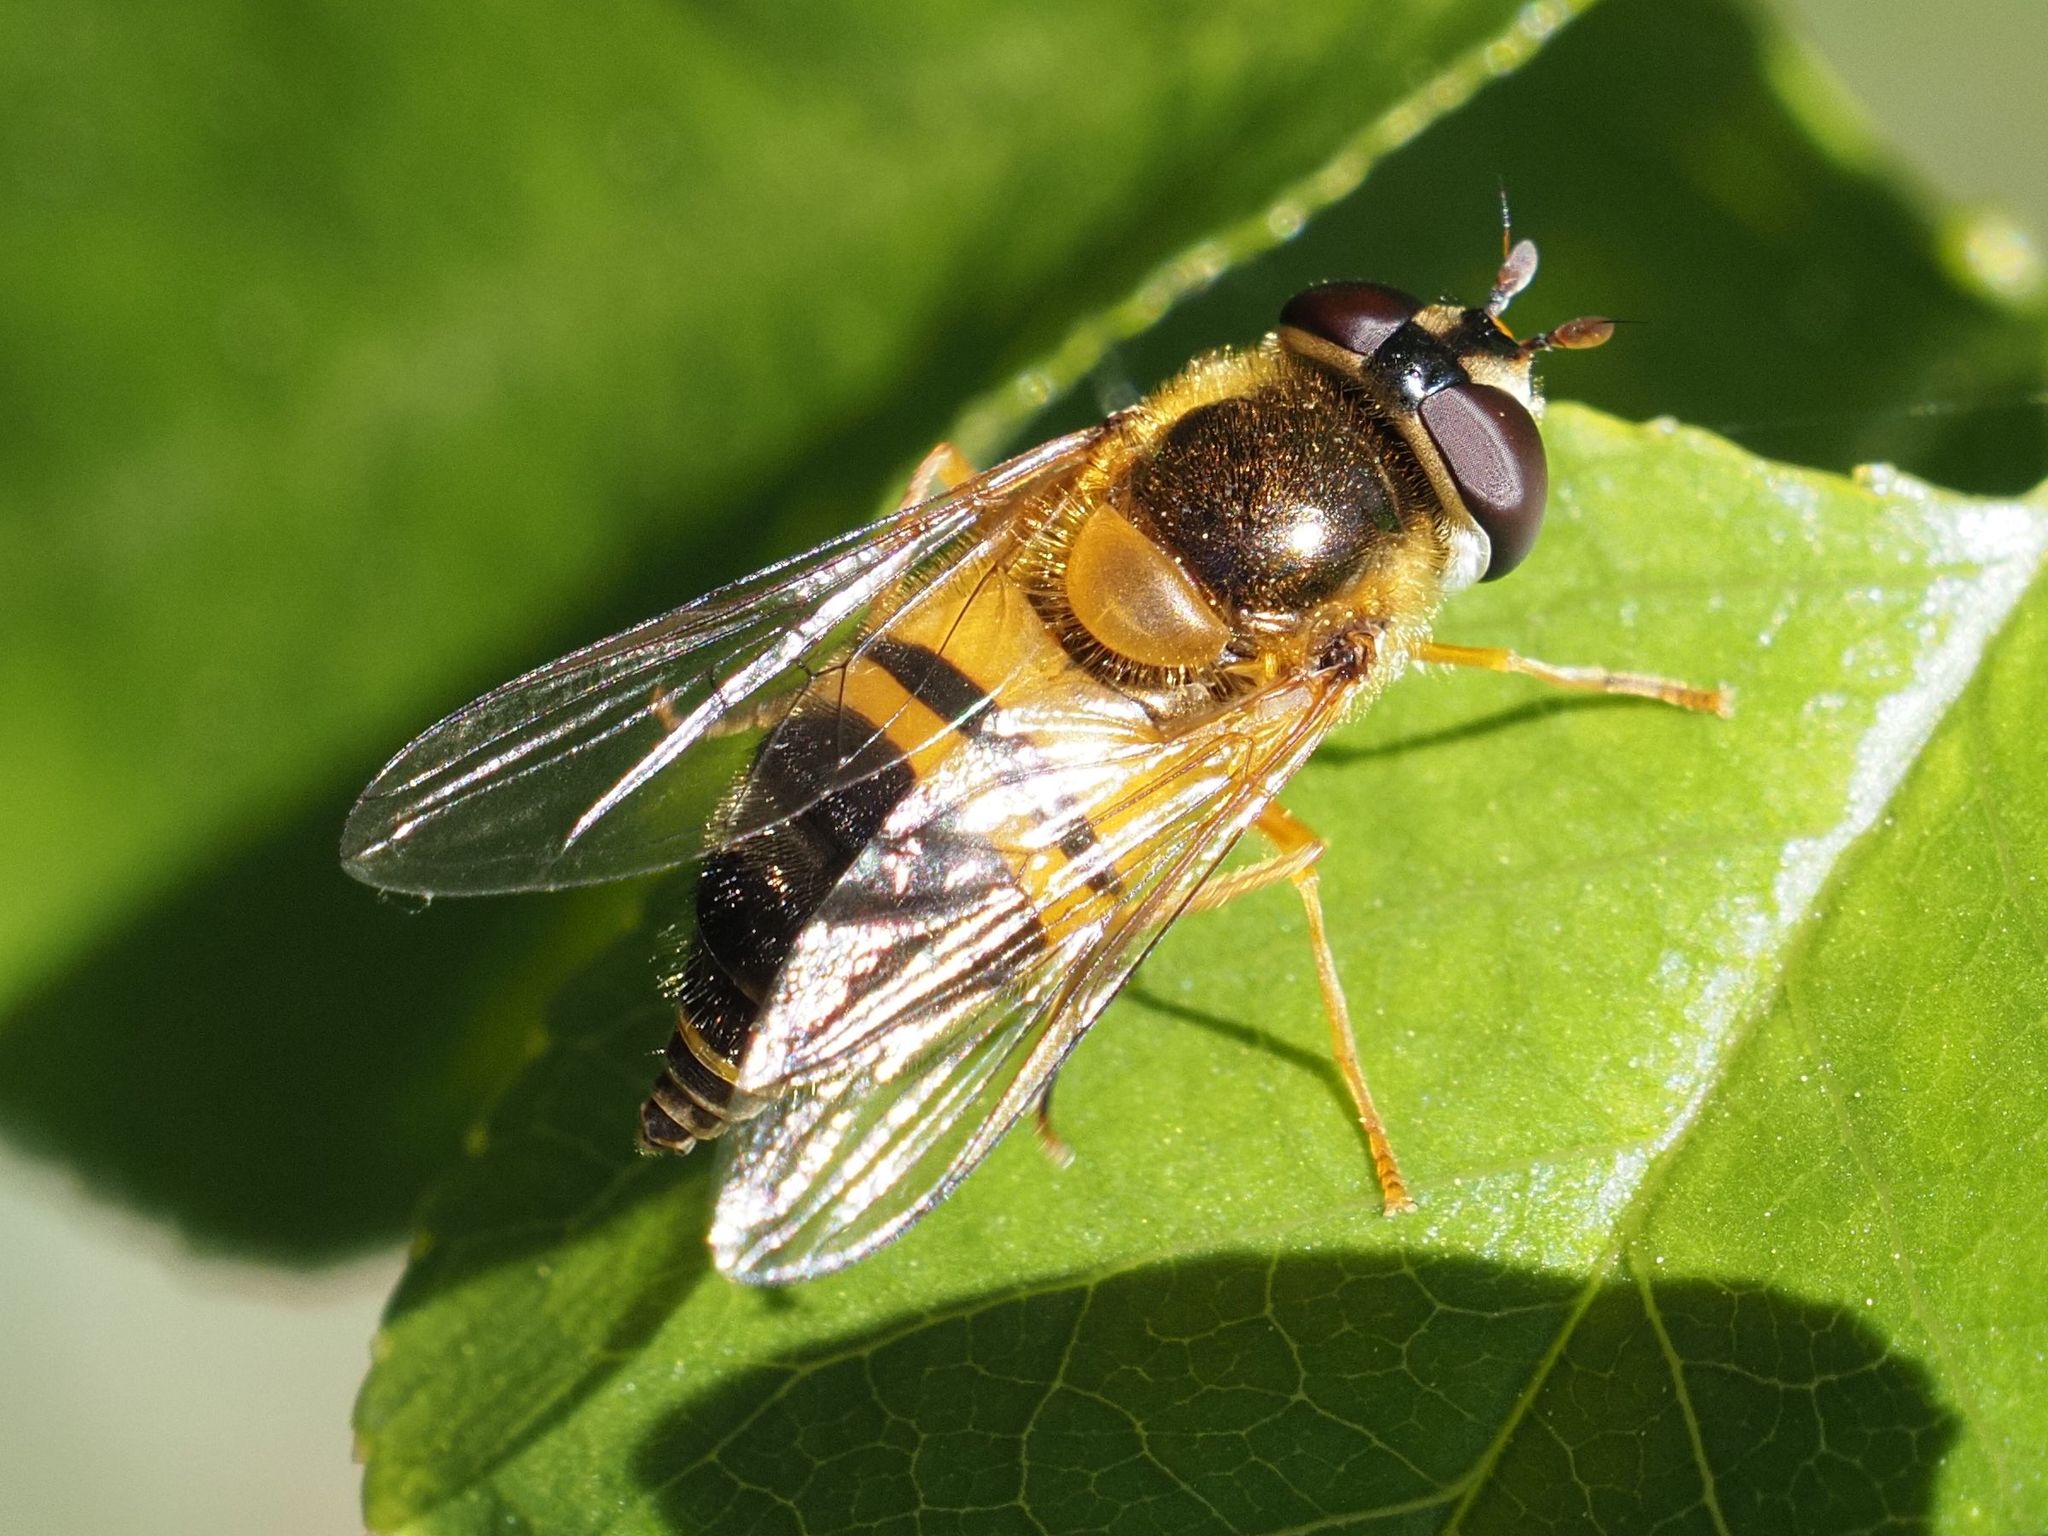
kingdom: Animalia
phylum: Arthropoda
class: Insecta
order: Diptera
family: Syrphidae
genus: Epistrophe
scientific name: Epistrophe eligans
